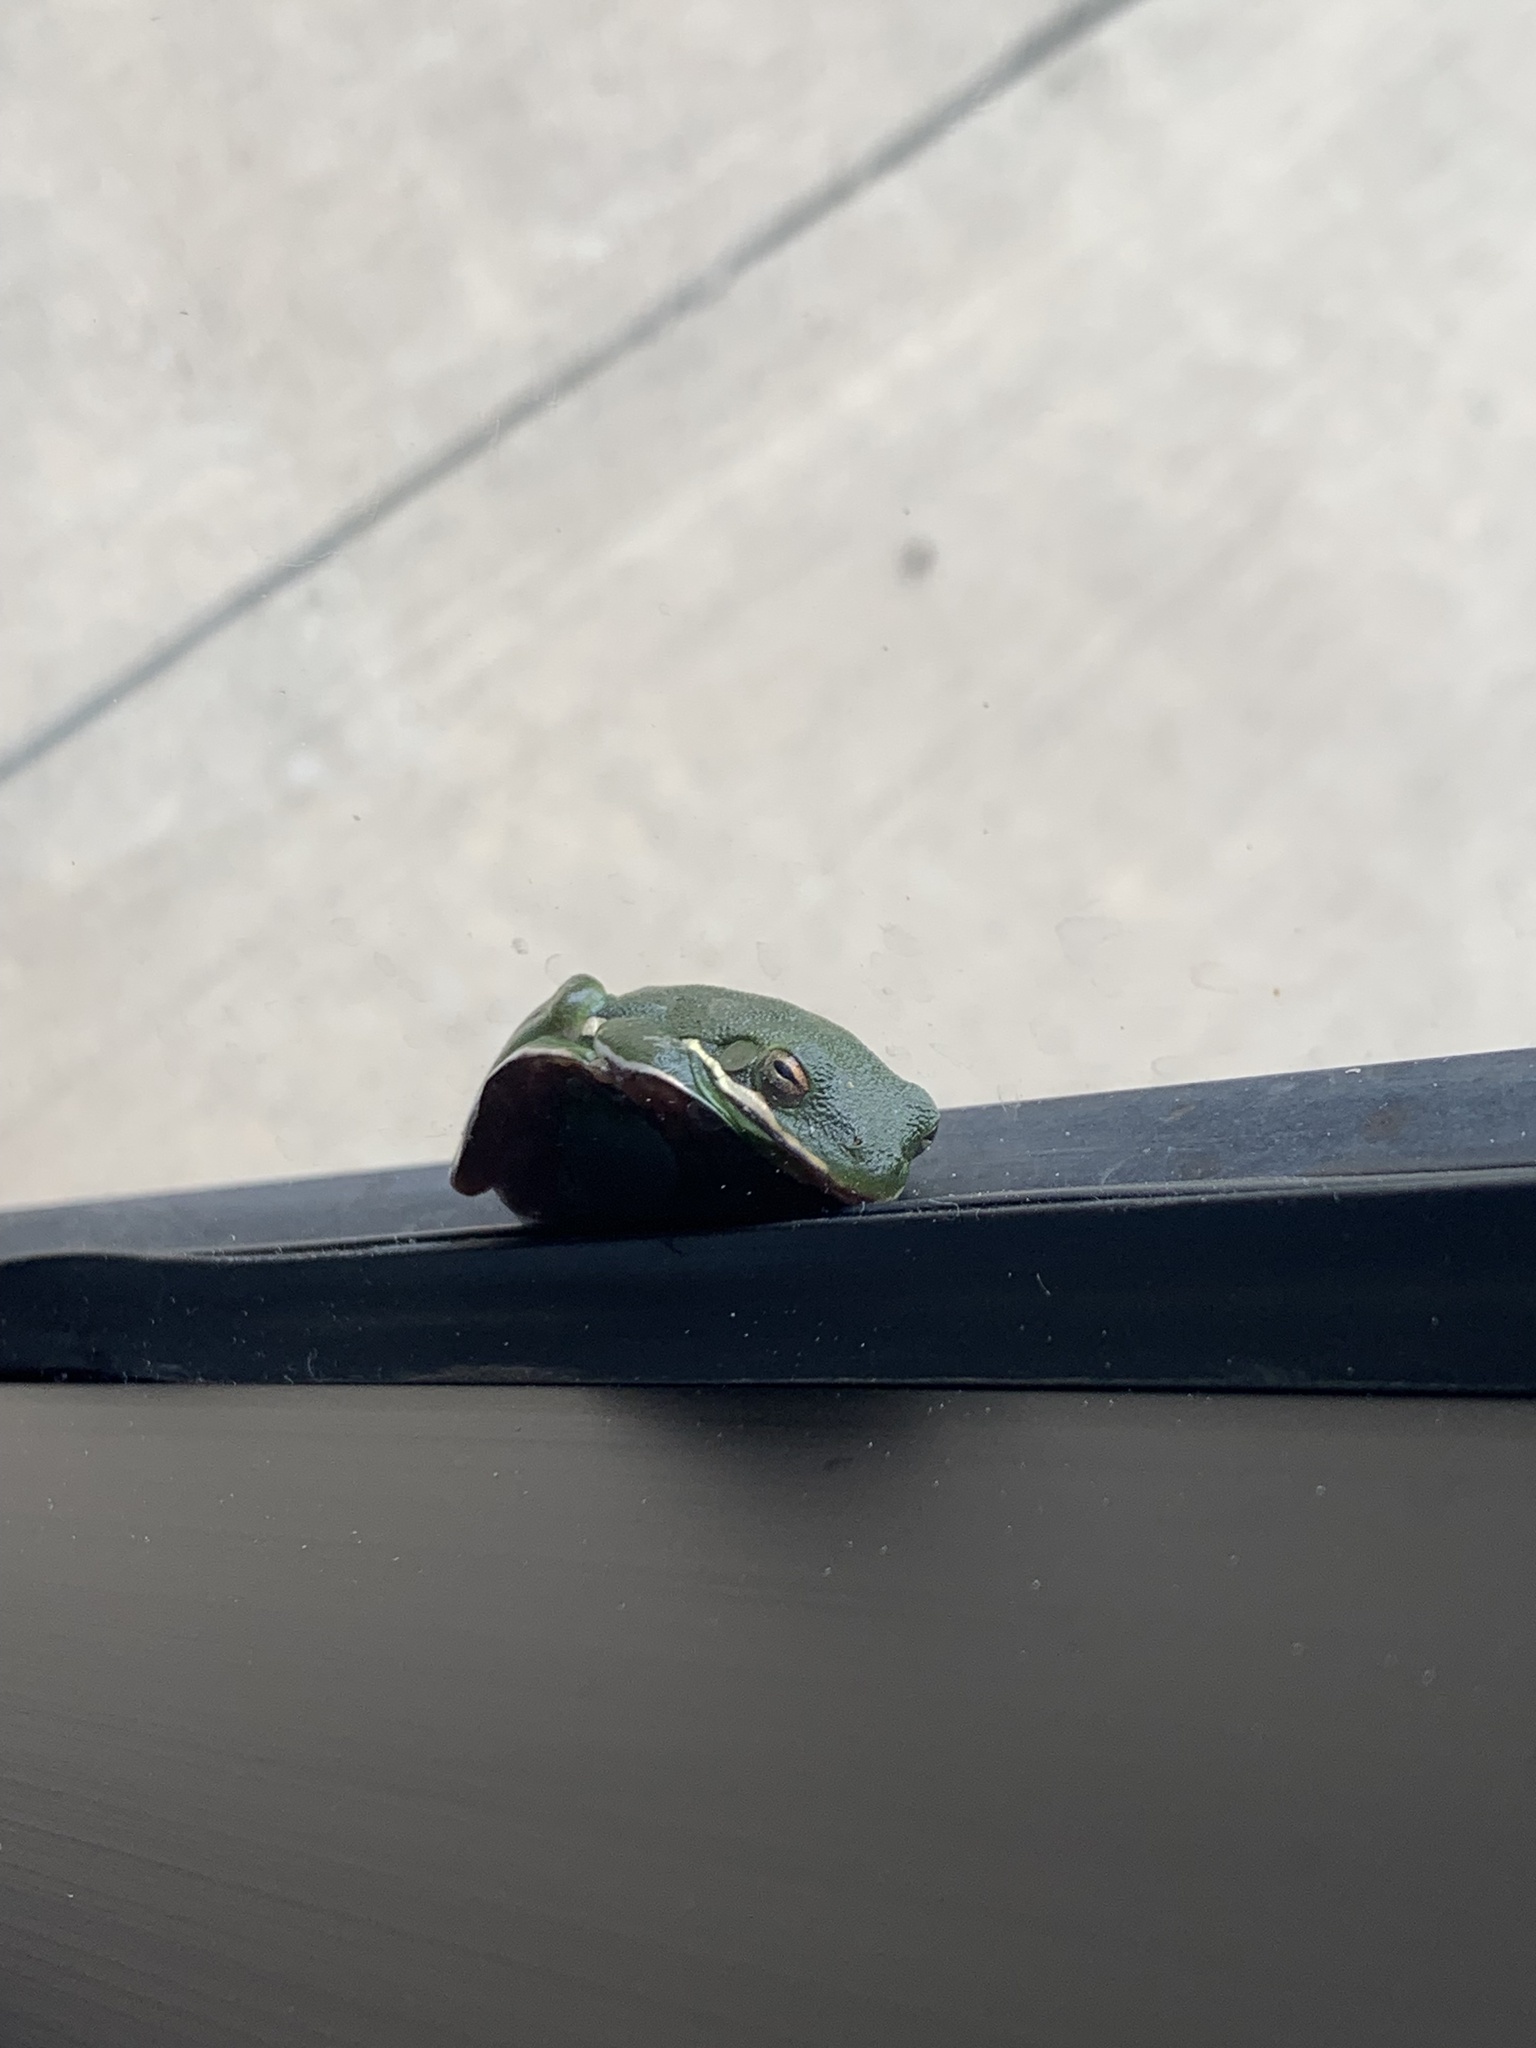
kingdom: Animalia
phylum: Chordata
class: Amphibia
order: Anura
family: Hylidae
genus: Dryophytes
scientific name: Dryophytes cinereus
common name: Green treefrog
